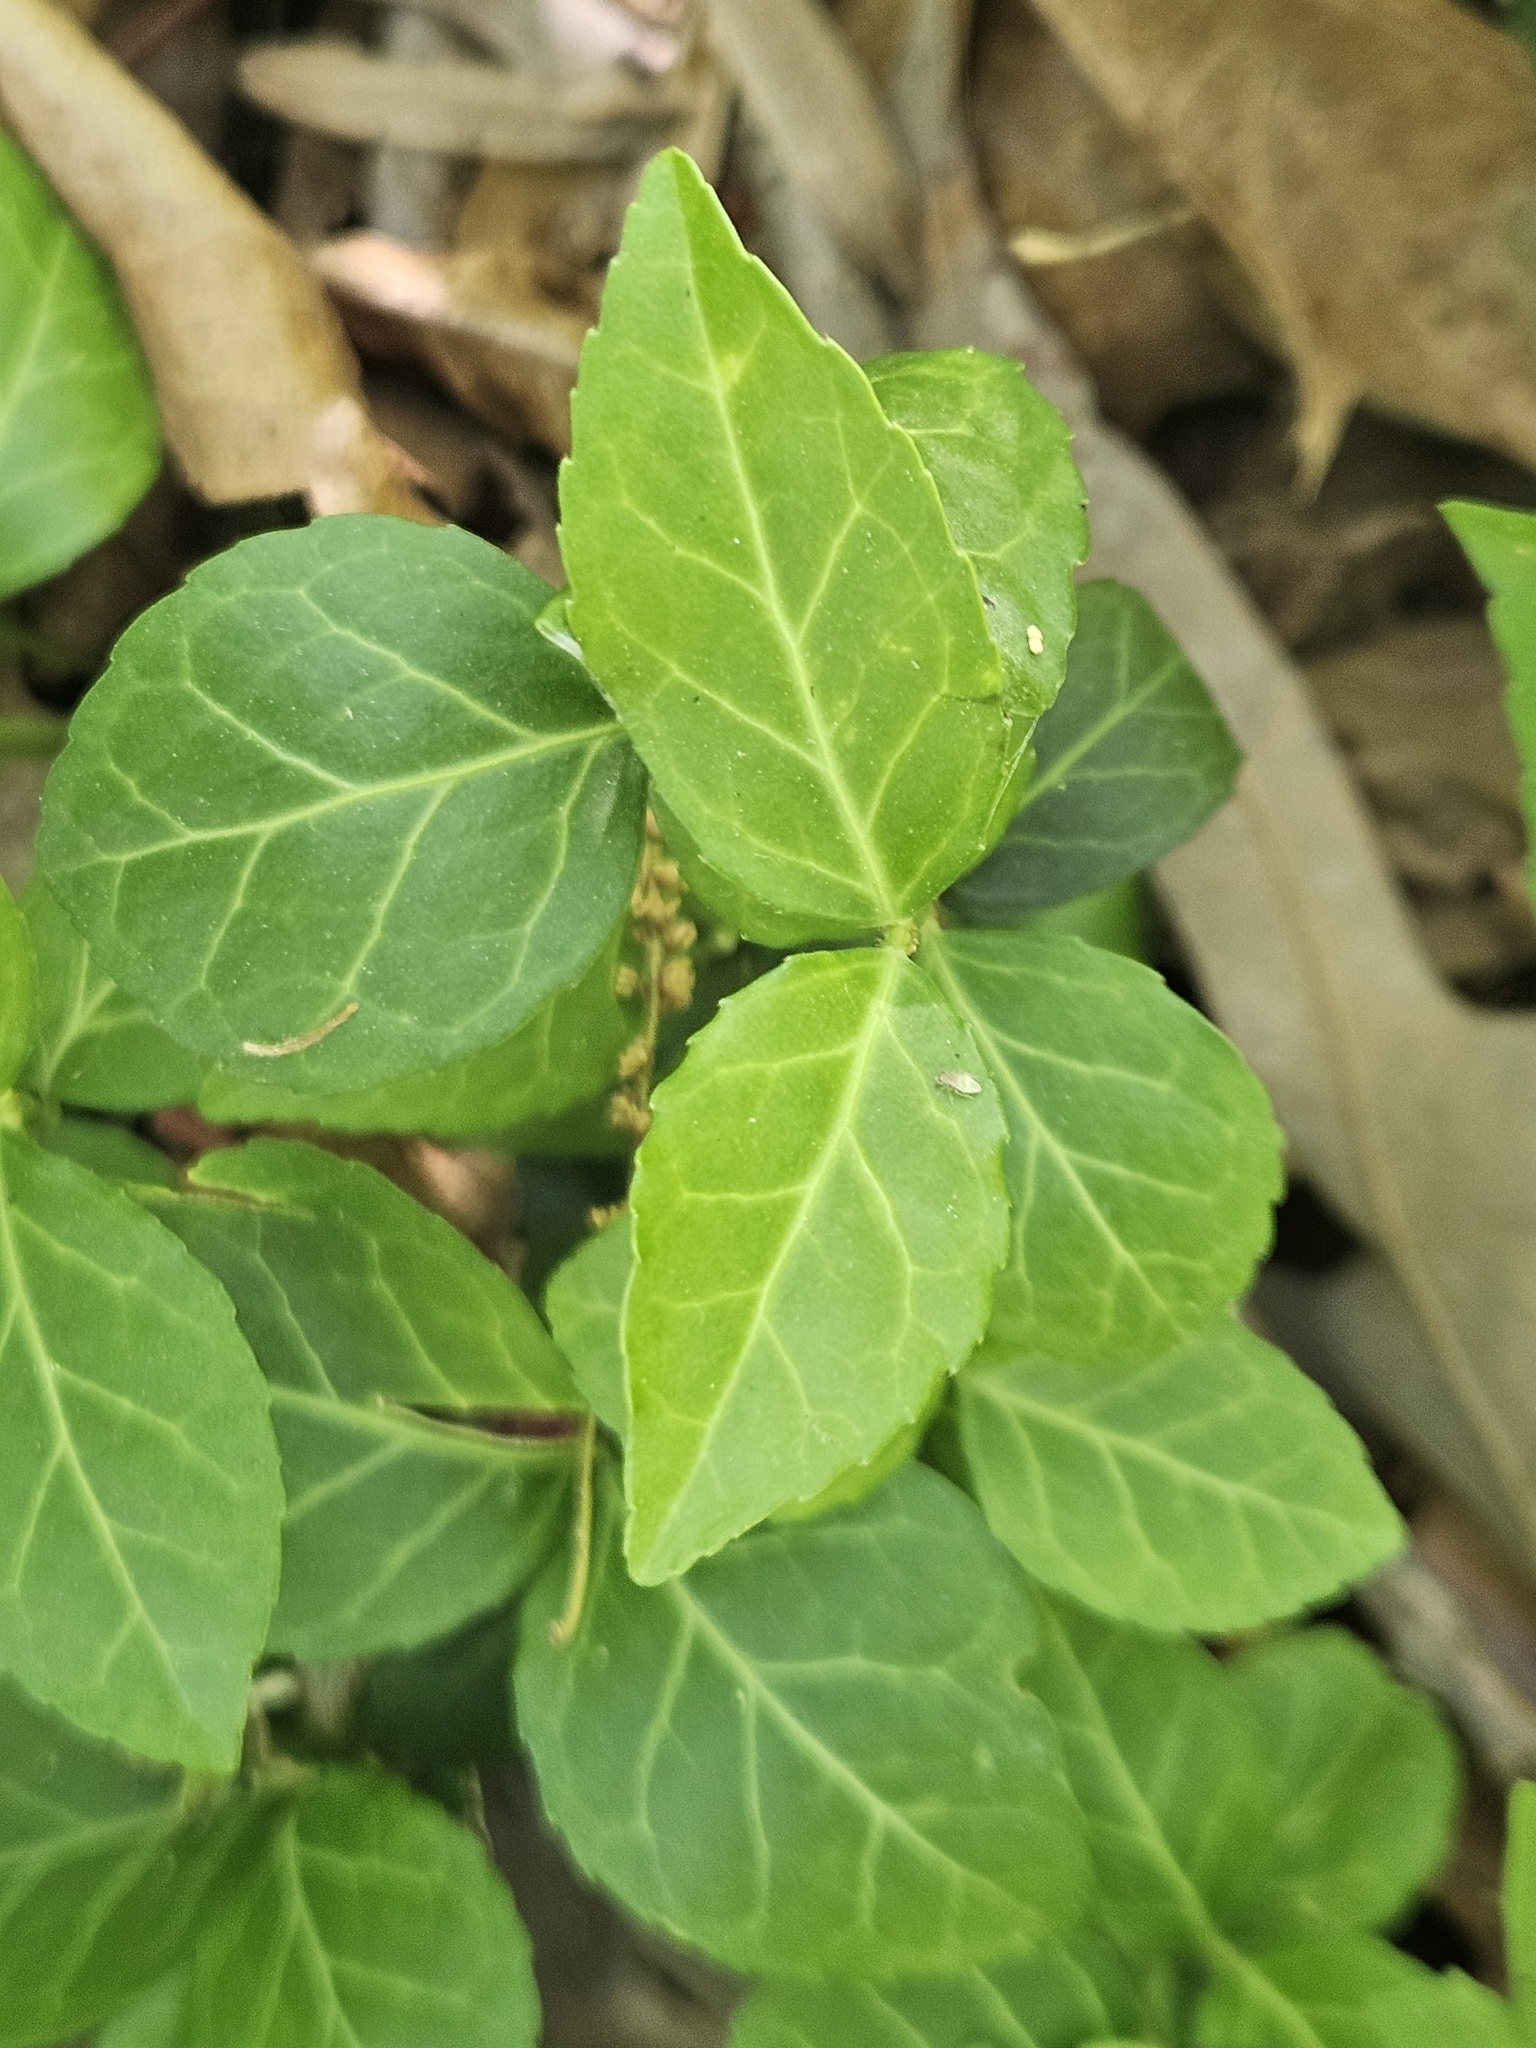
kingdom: Plantae
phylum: Tracheophyta
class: Magnoliopsida
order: Celastrales
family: Celastraceae
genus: Euonymus
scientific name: Euonymus fortunei
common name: Climbing euonymus
